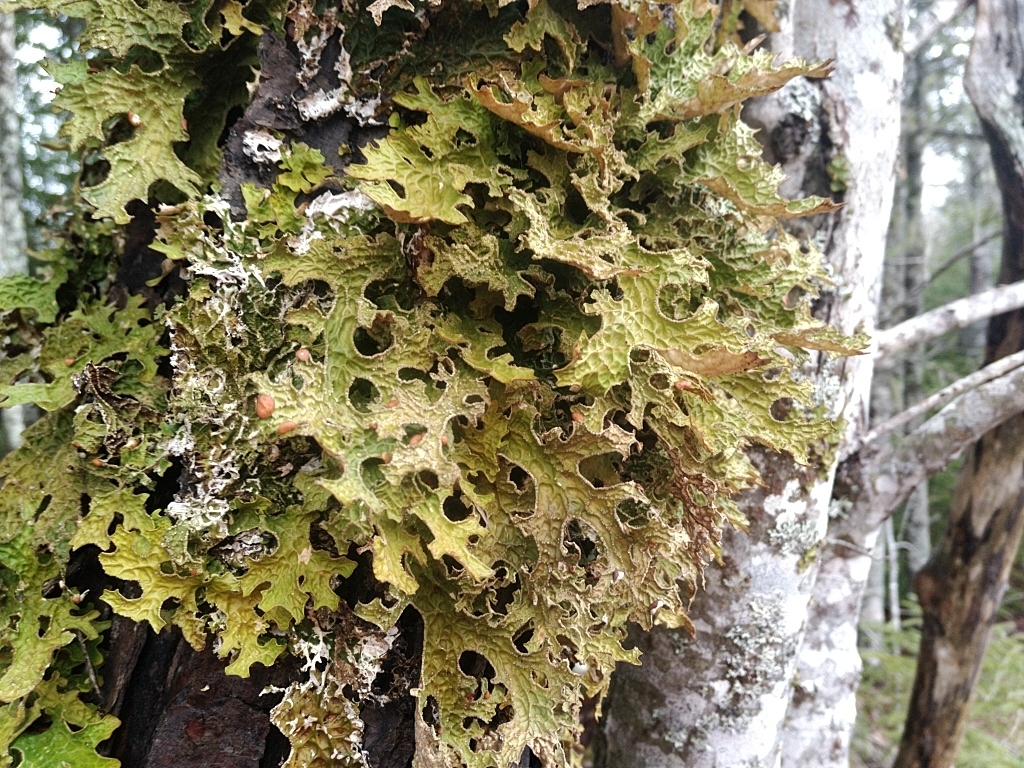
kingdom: Fungi
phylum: Ascomycota
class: Lecanoromycetes
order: Peltigerales
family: Lobariaceae
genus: Lobaria
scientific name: Lobaria pulmonaria
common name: Lungwort
